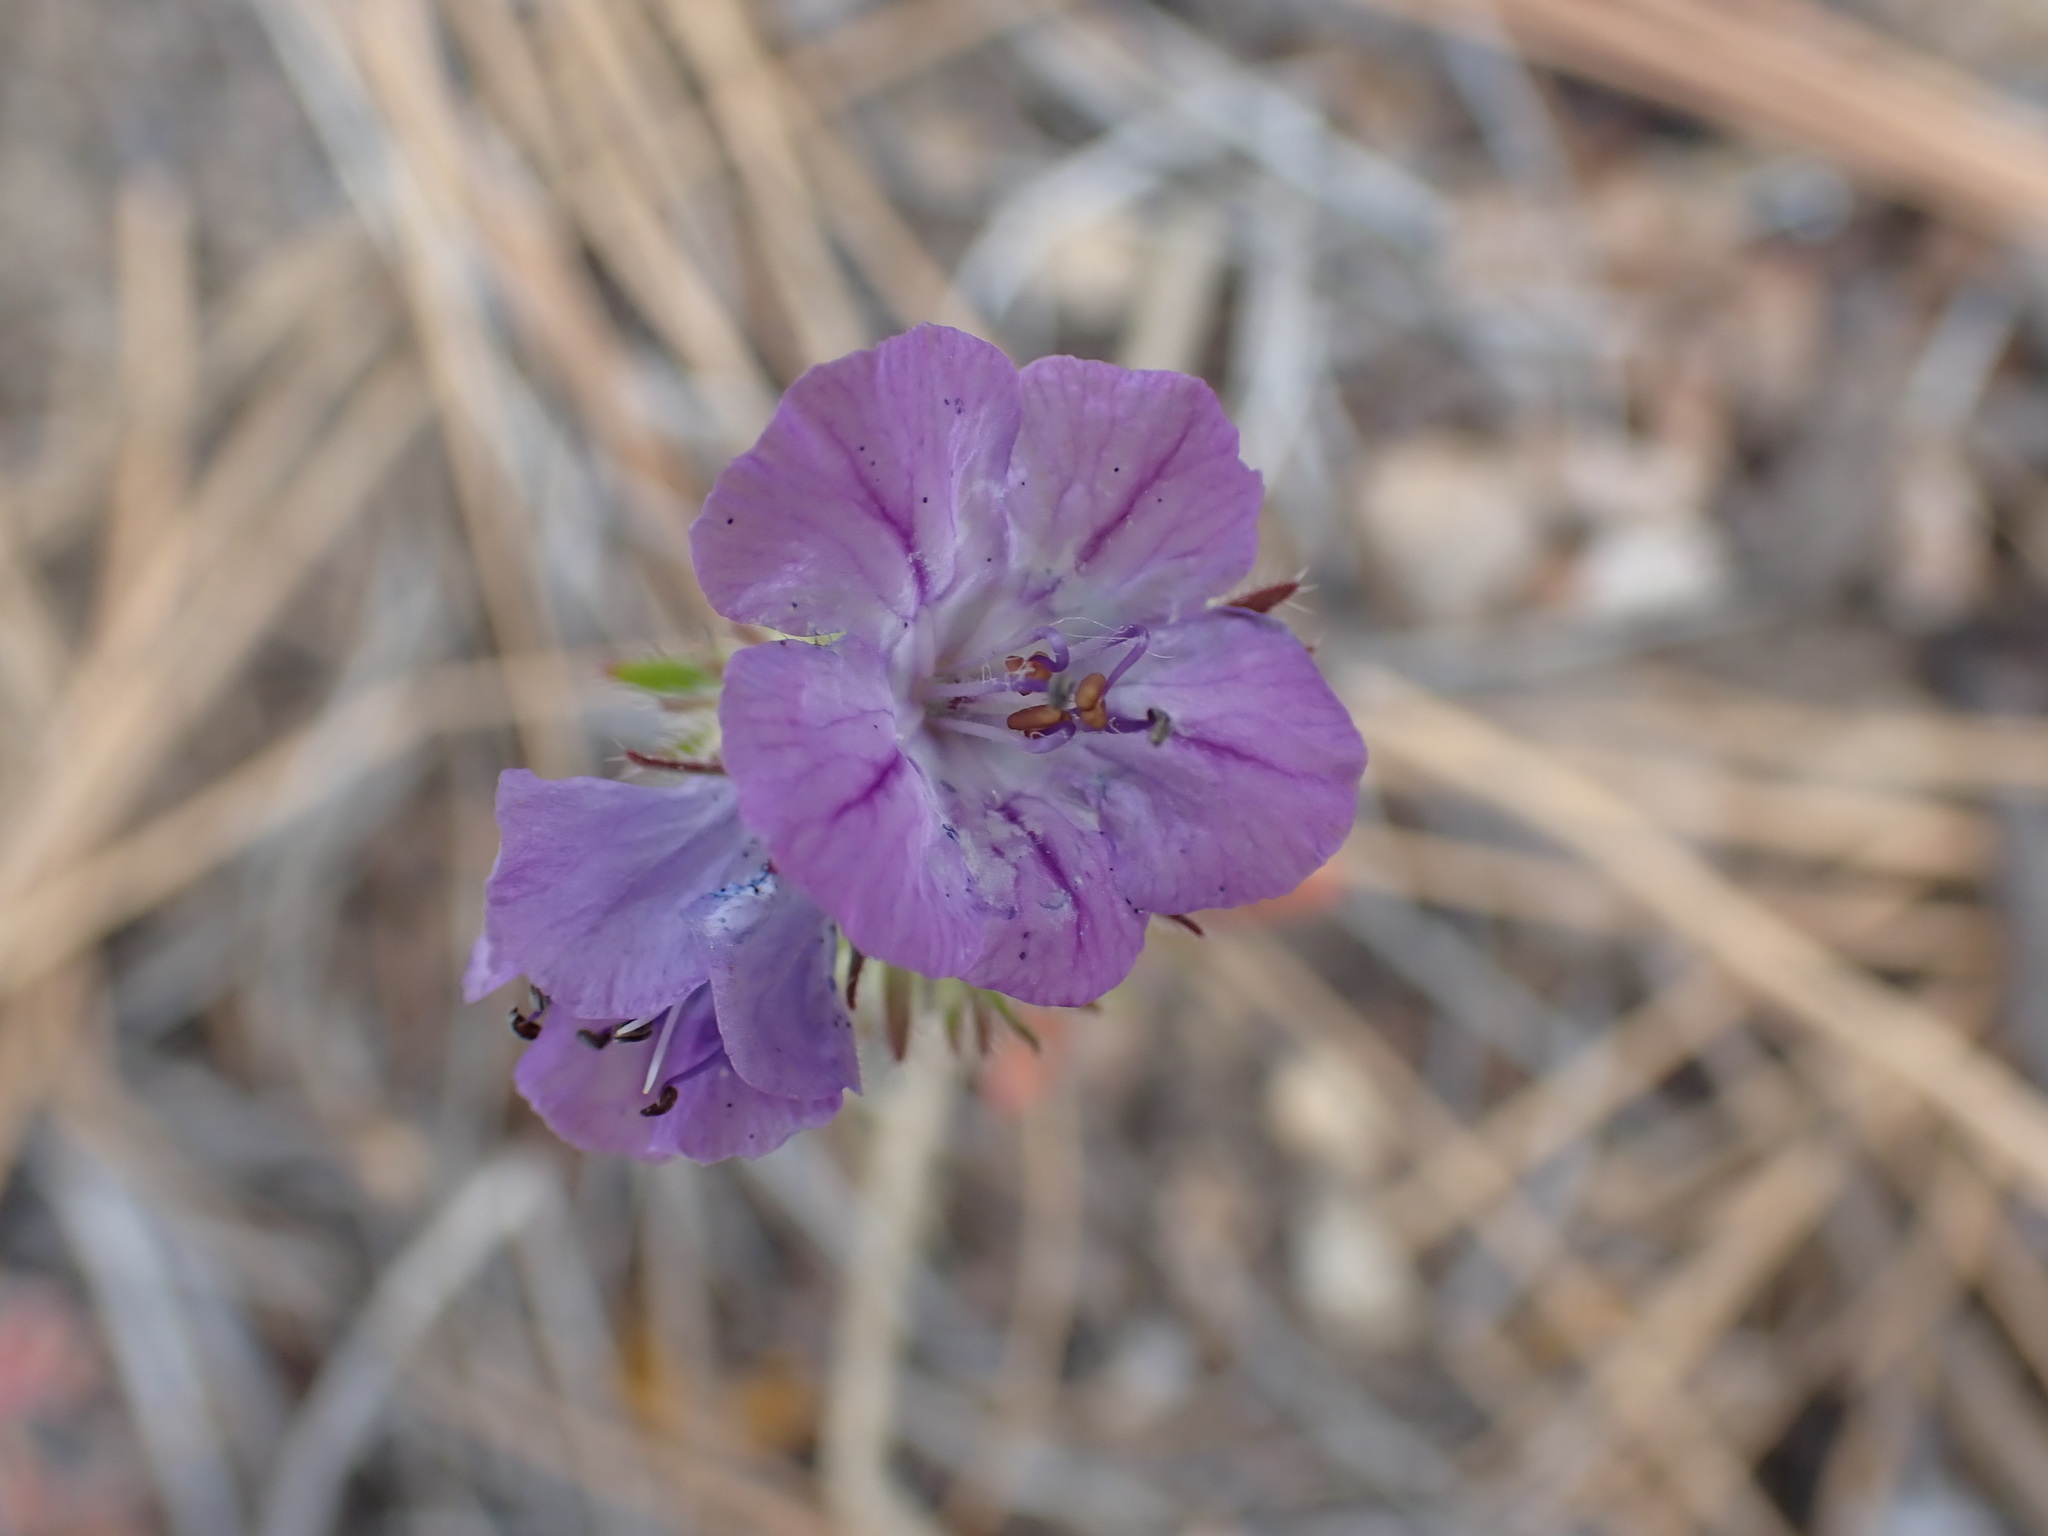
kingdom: Plantae
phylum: Tracheophyta
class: Magnoliopsida
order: Boraginales
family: Hydrophyllaceae
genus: Phacelia
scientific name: Phacelia linearis
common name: Linear-leaved phacelia
